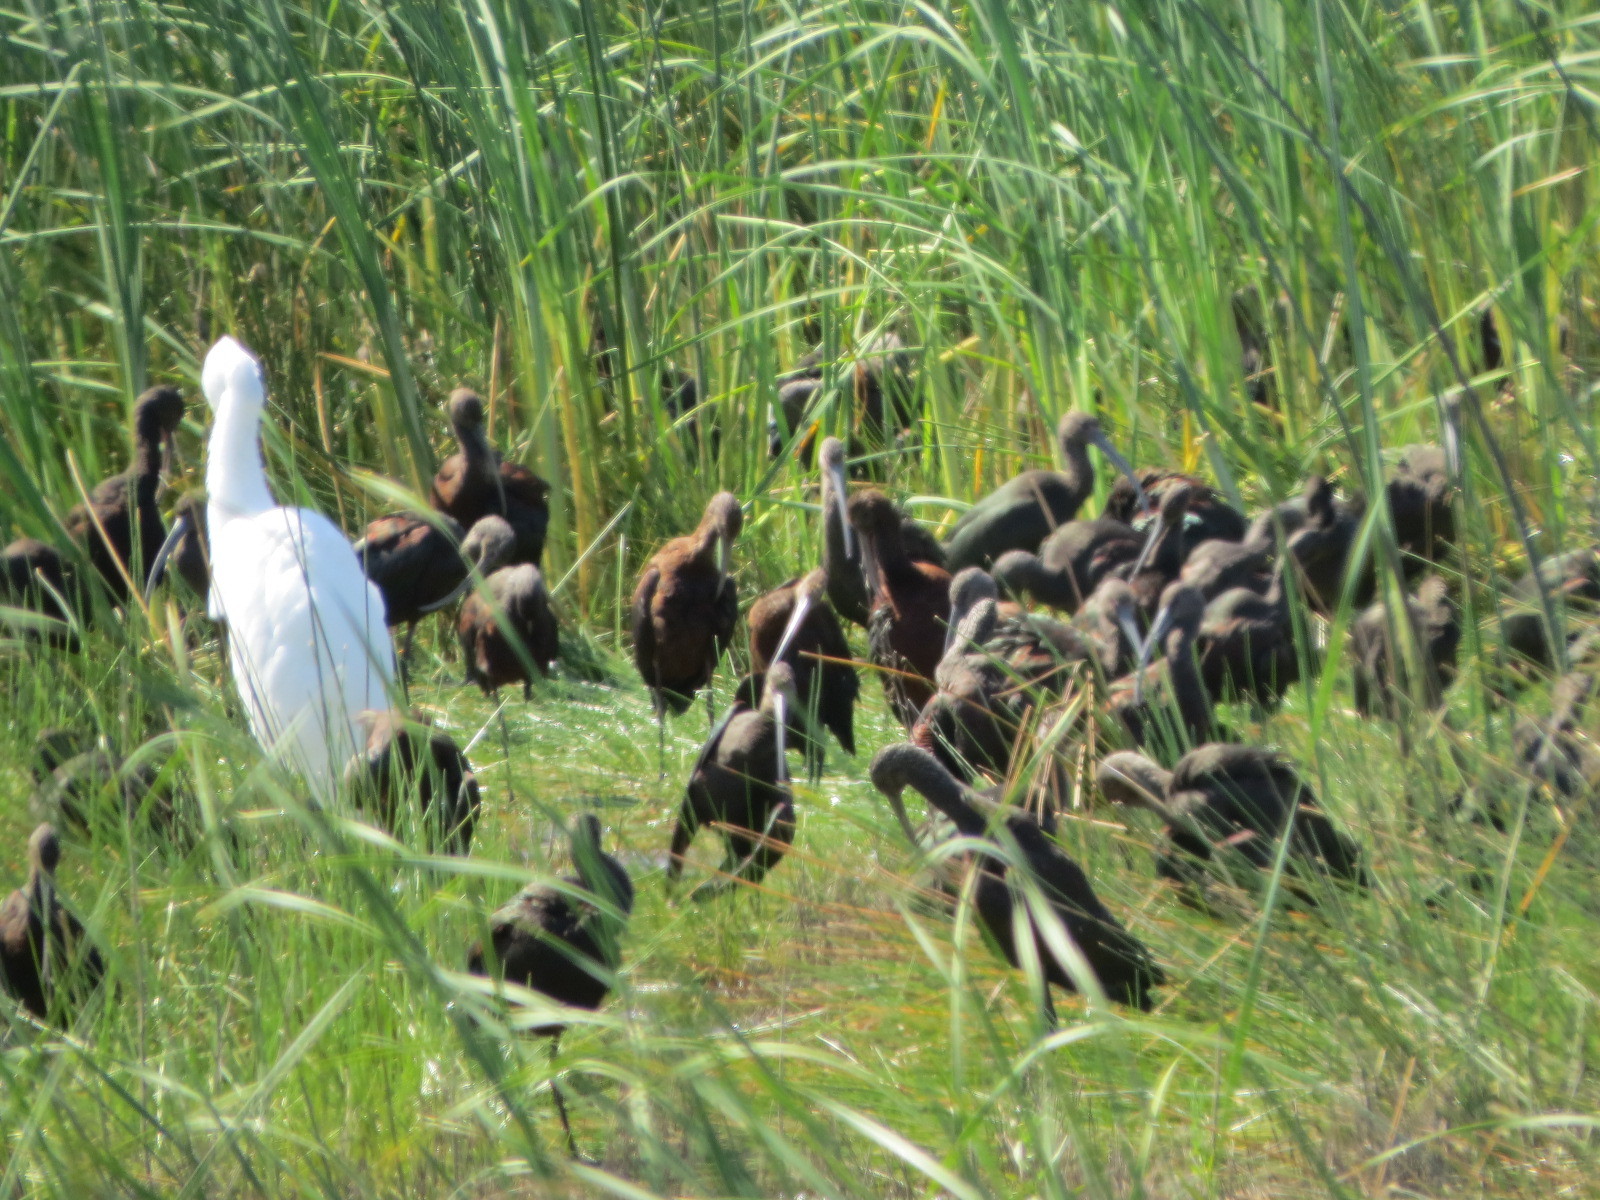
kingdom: Animalia
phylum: Chordata
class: Aves
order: Pelecaniformes
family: Threskiornithidae
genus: Plegadis
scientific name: Plegadis chihi
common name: White-faced ibis
